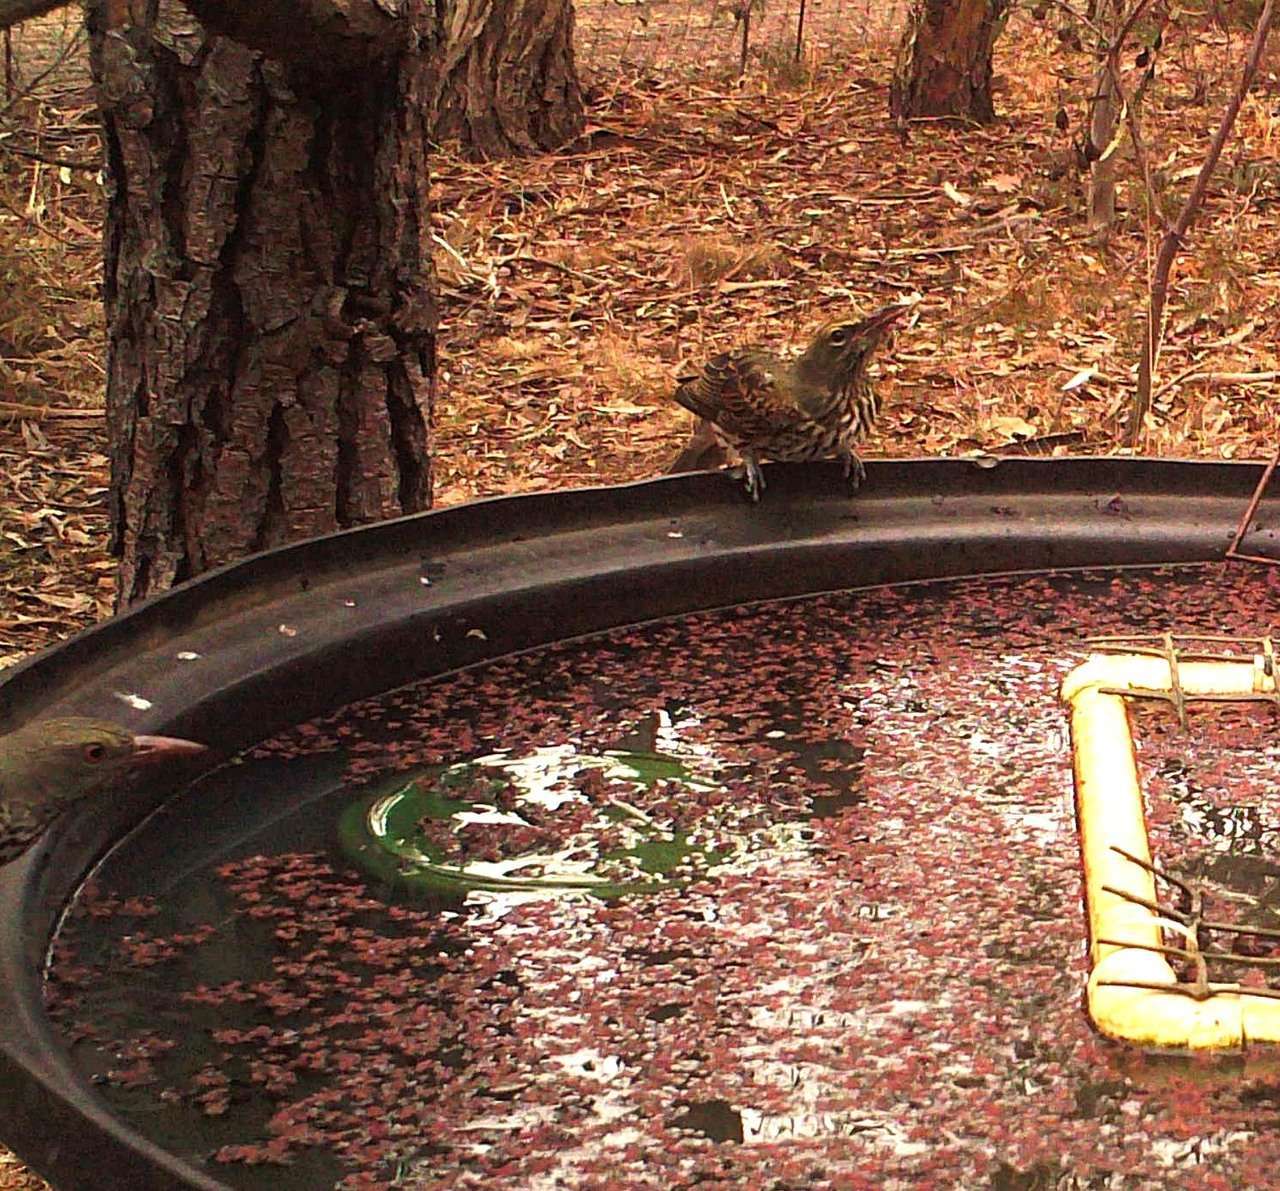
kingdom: Animalia
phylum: Chordata
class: Aves
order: Passeriformes
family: Oriolidae
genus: Oriolus
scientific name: Oriolus sagittatus
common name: Olive-backed oriole
